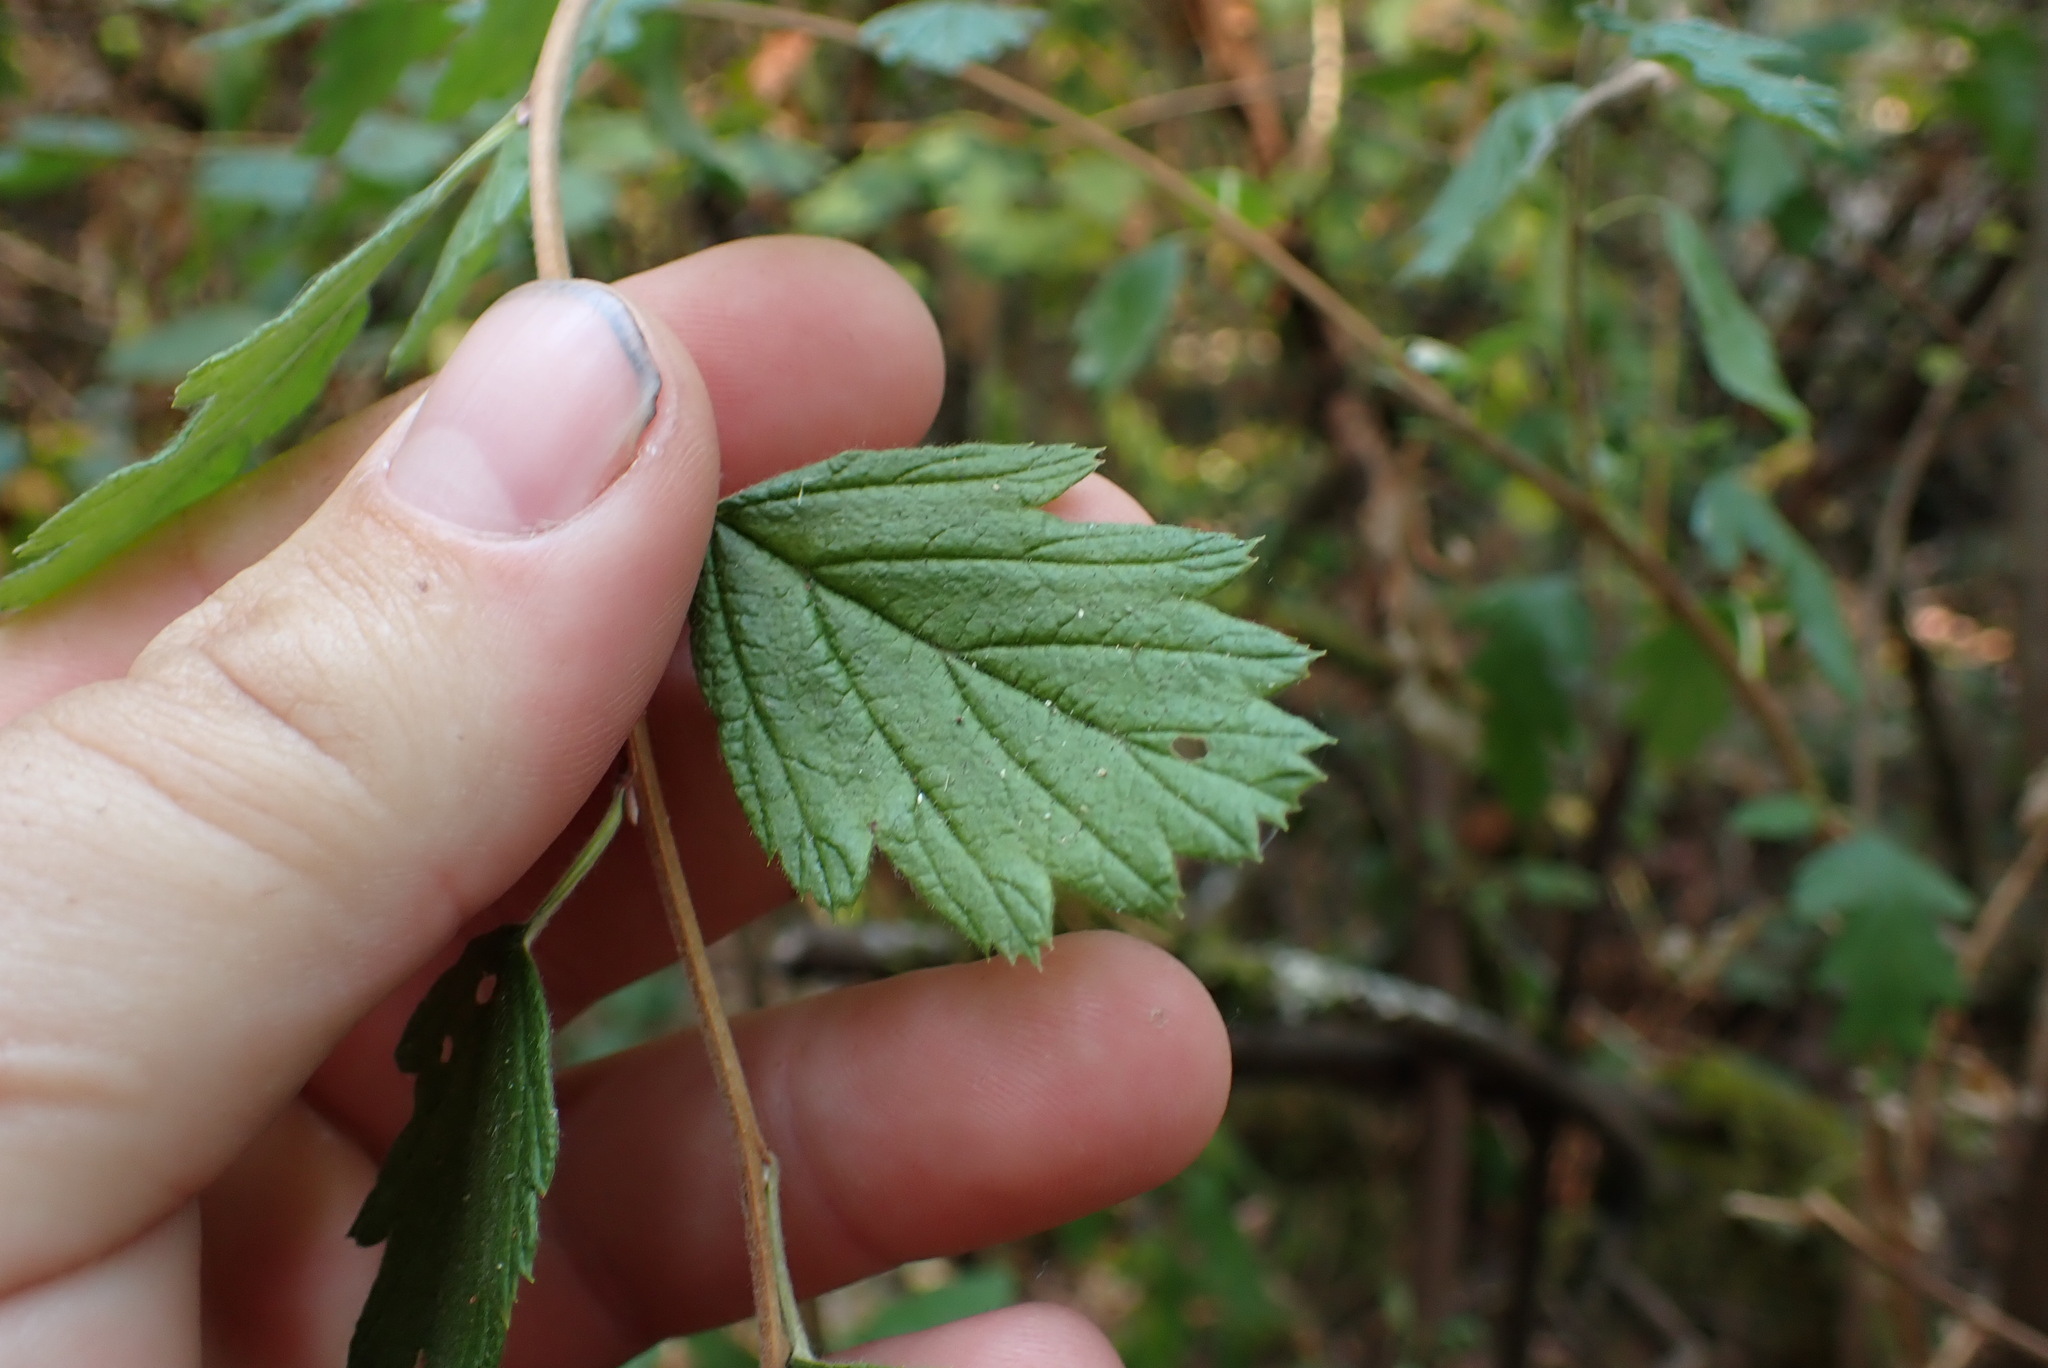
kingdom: Plantae
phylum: Tracheophyta
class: Magnoliopsida
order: Rosales
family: Rosaceae
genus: Holodiscus
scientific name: Holodiscus discolor
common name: Oceanspray
